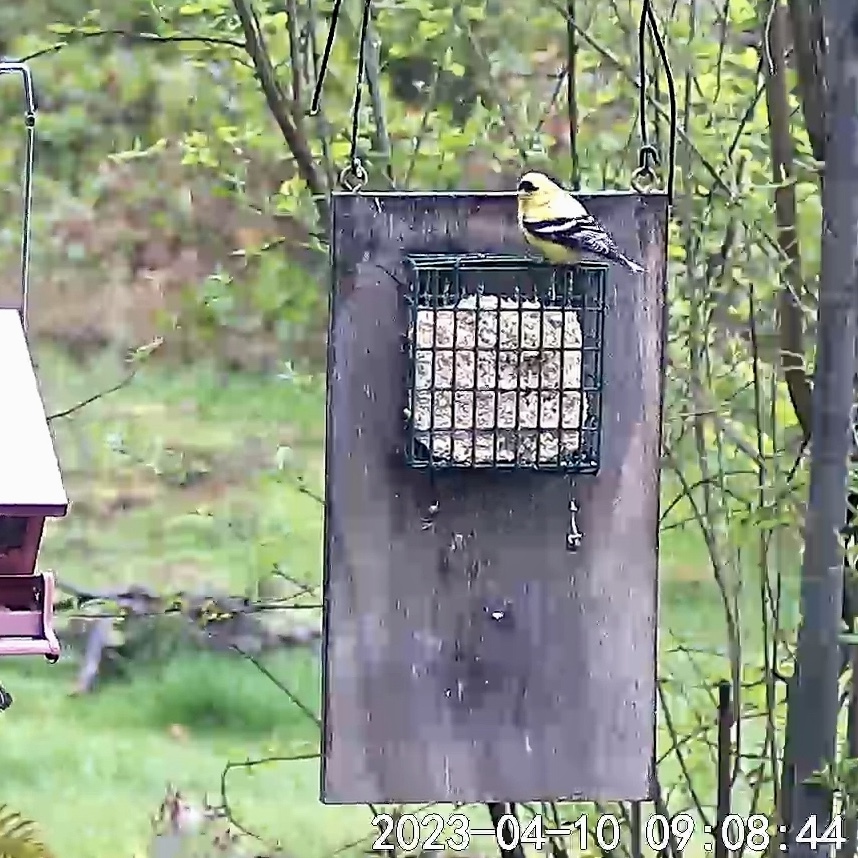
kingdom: Animalia
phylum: Chordata
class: Aves
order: Passeriformes
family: Fringillidae
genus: Spinus
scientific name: Spinus tristis
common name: American goldfinch
